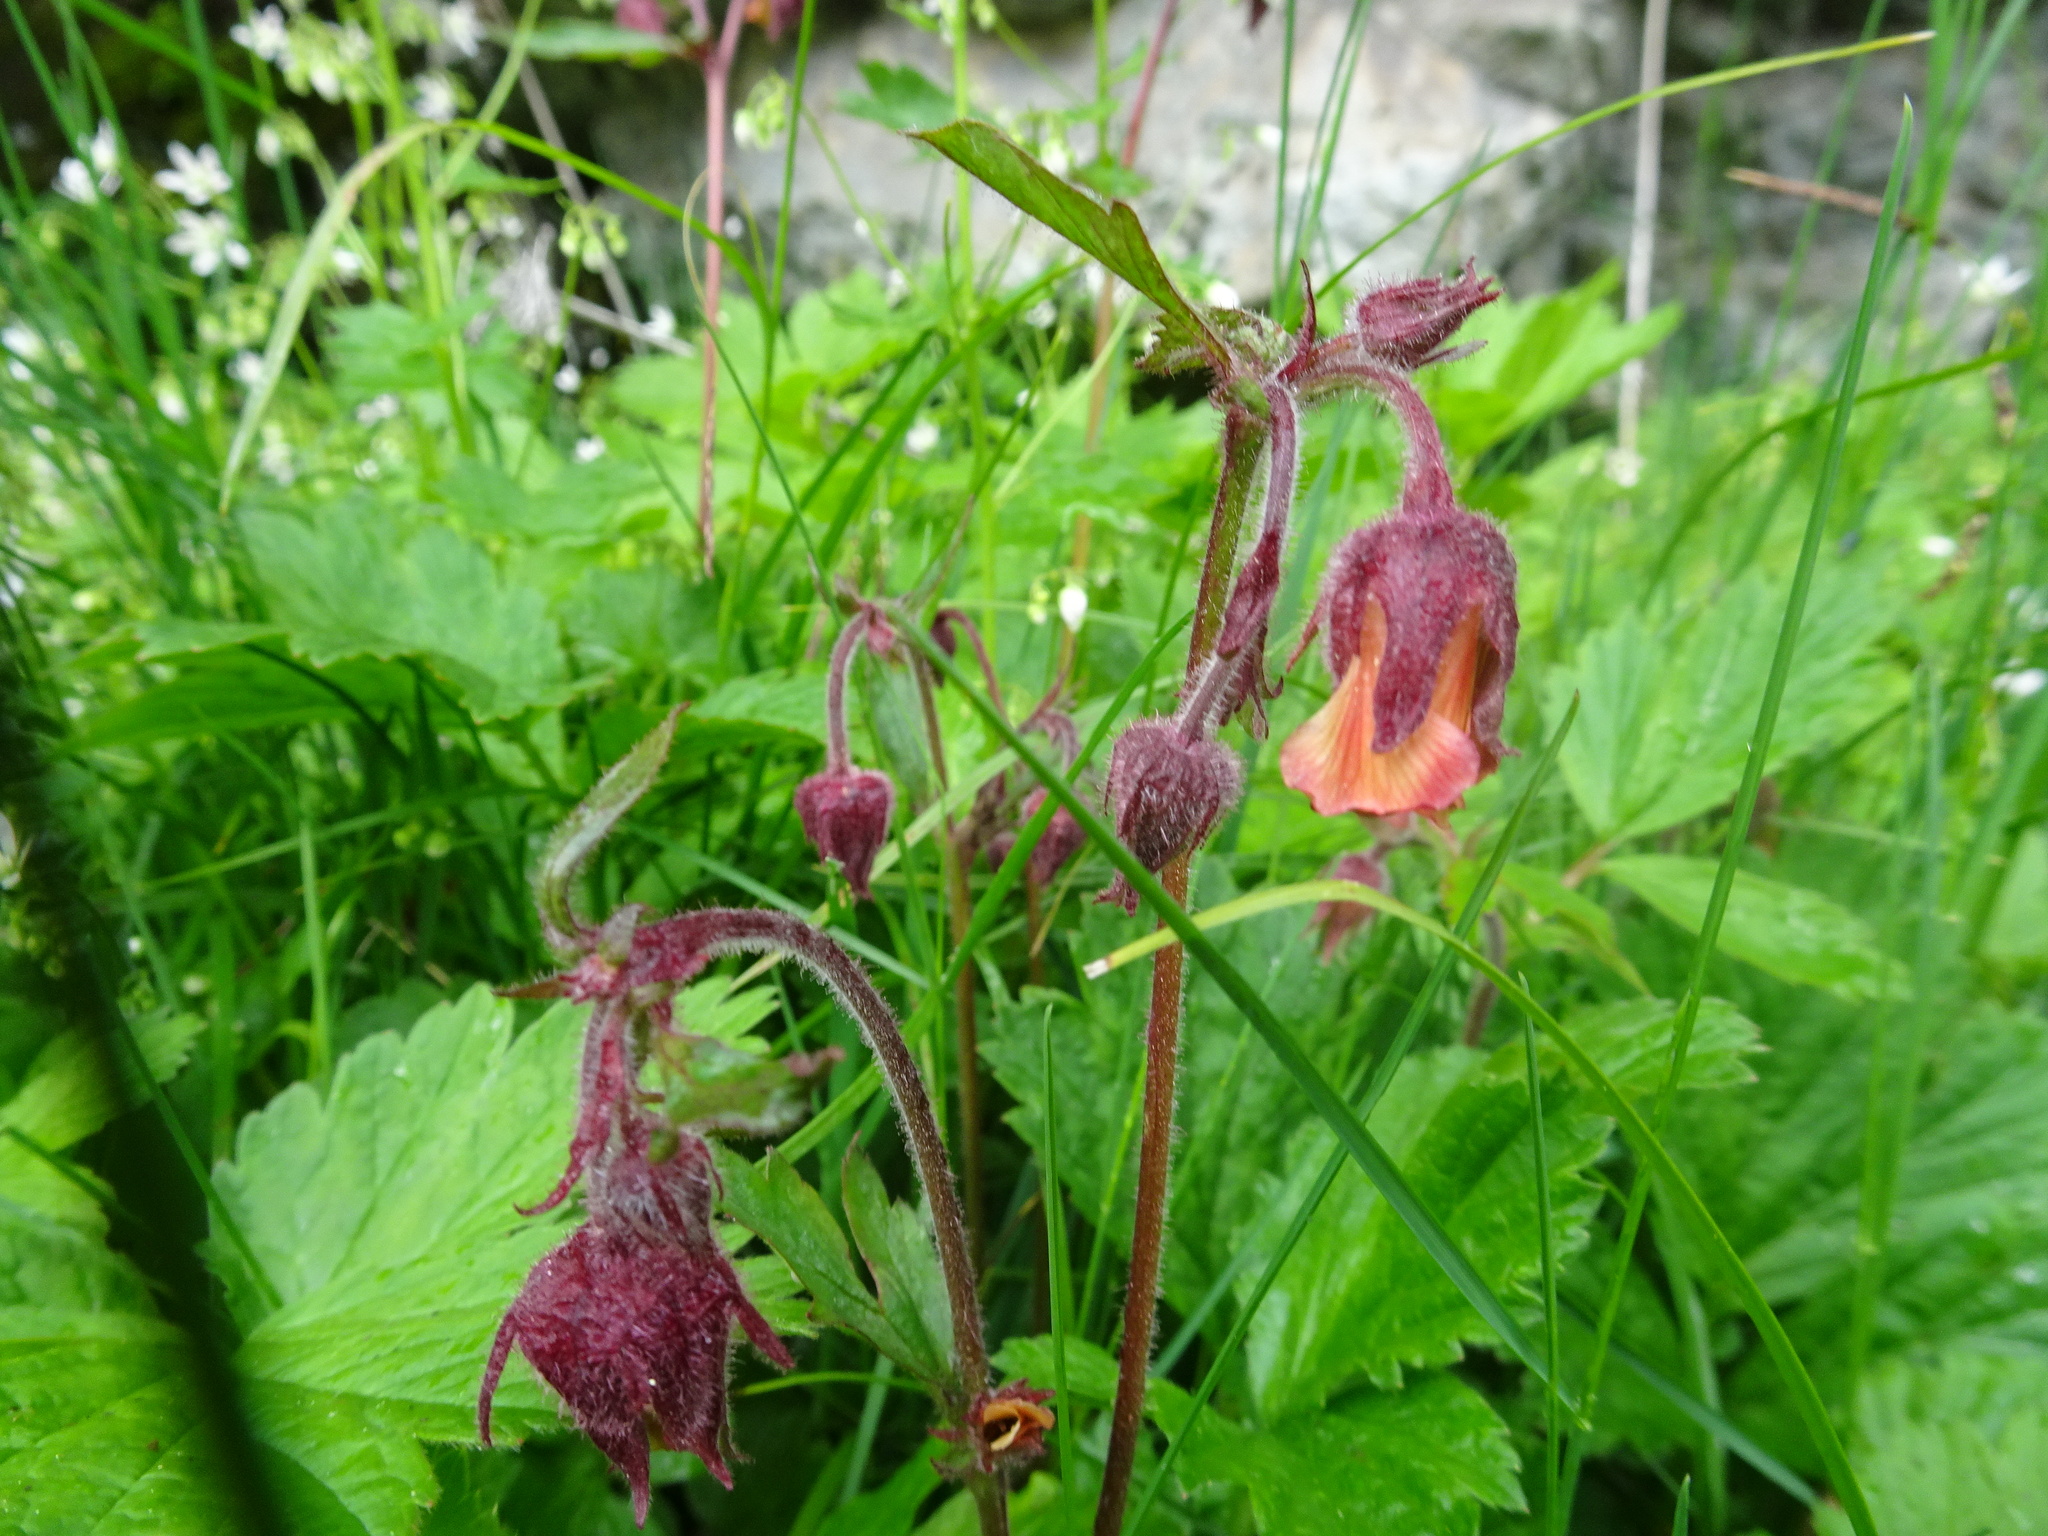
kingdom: Plantae
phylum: Tracheophyta
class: Magnoliopsida
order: Rosales
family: Rosaceae
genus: Geum
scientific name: Geum rivale
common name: Water avens
